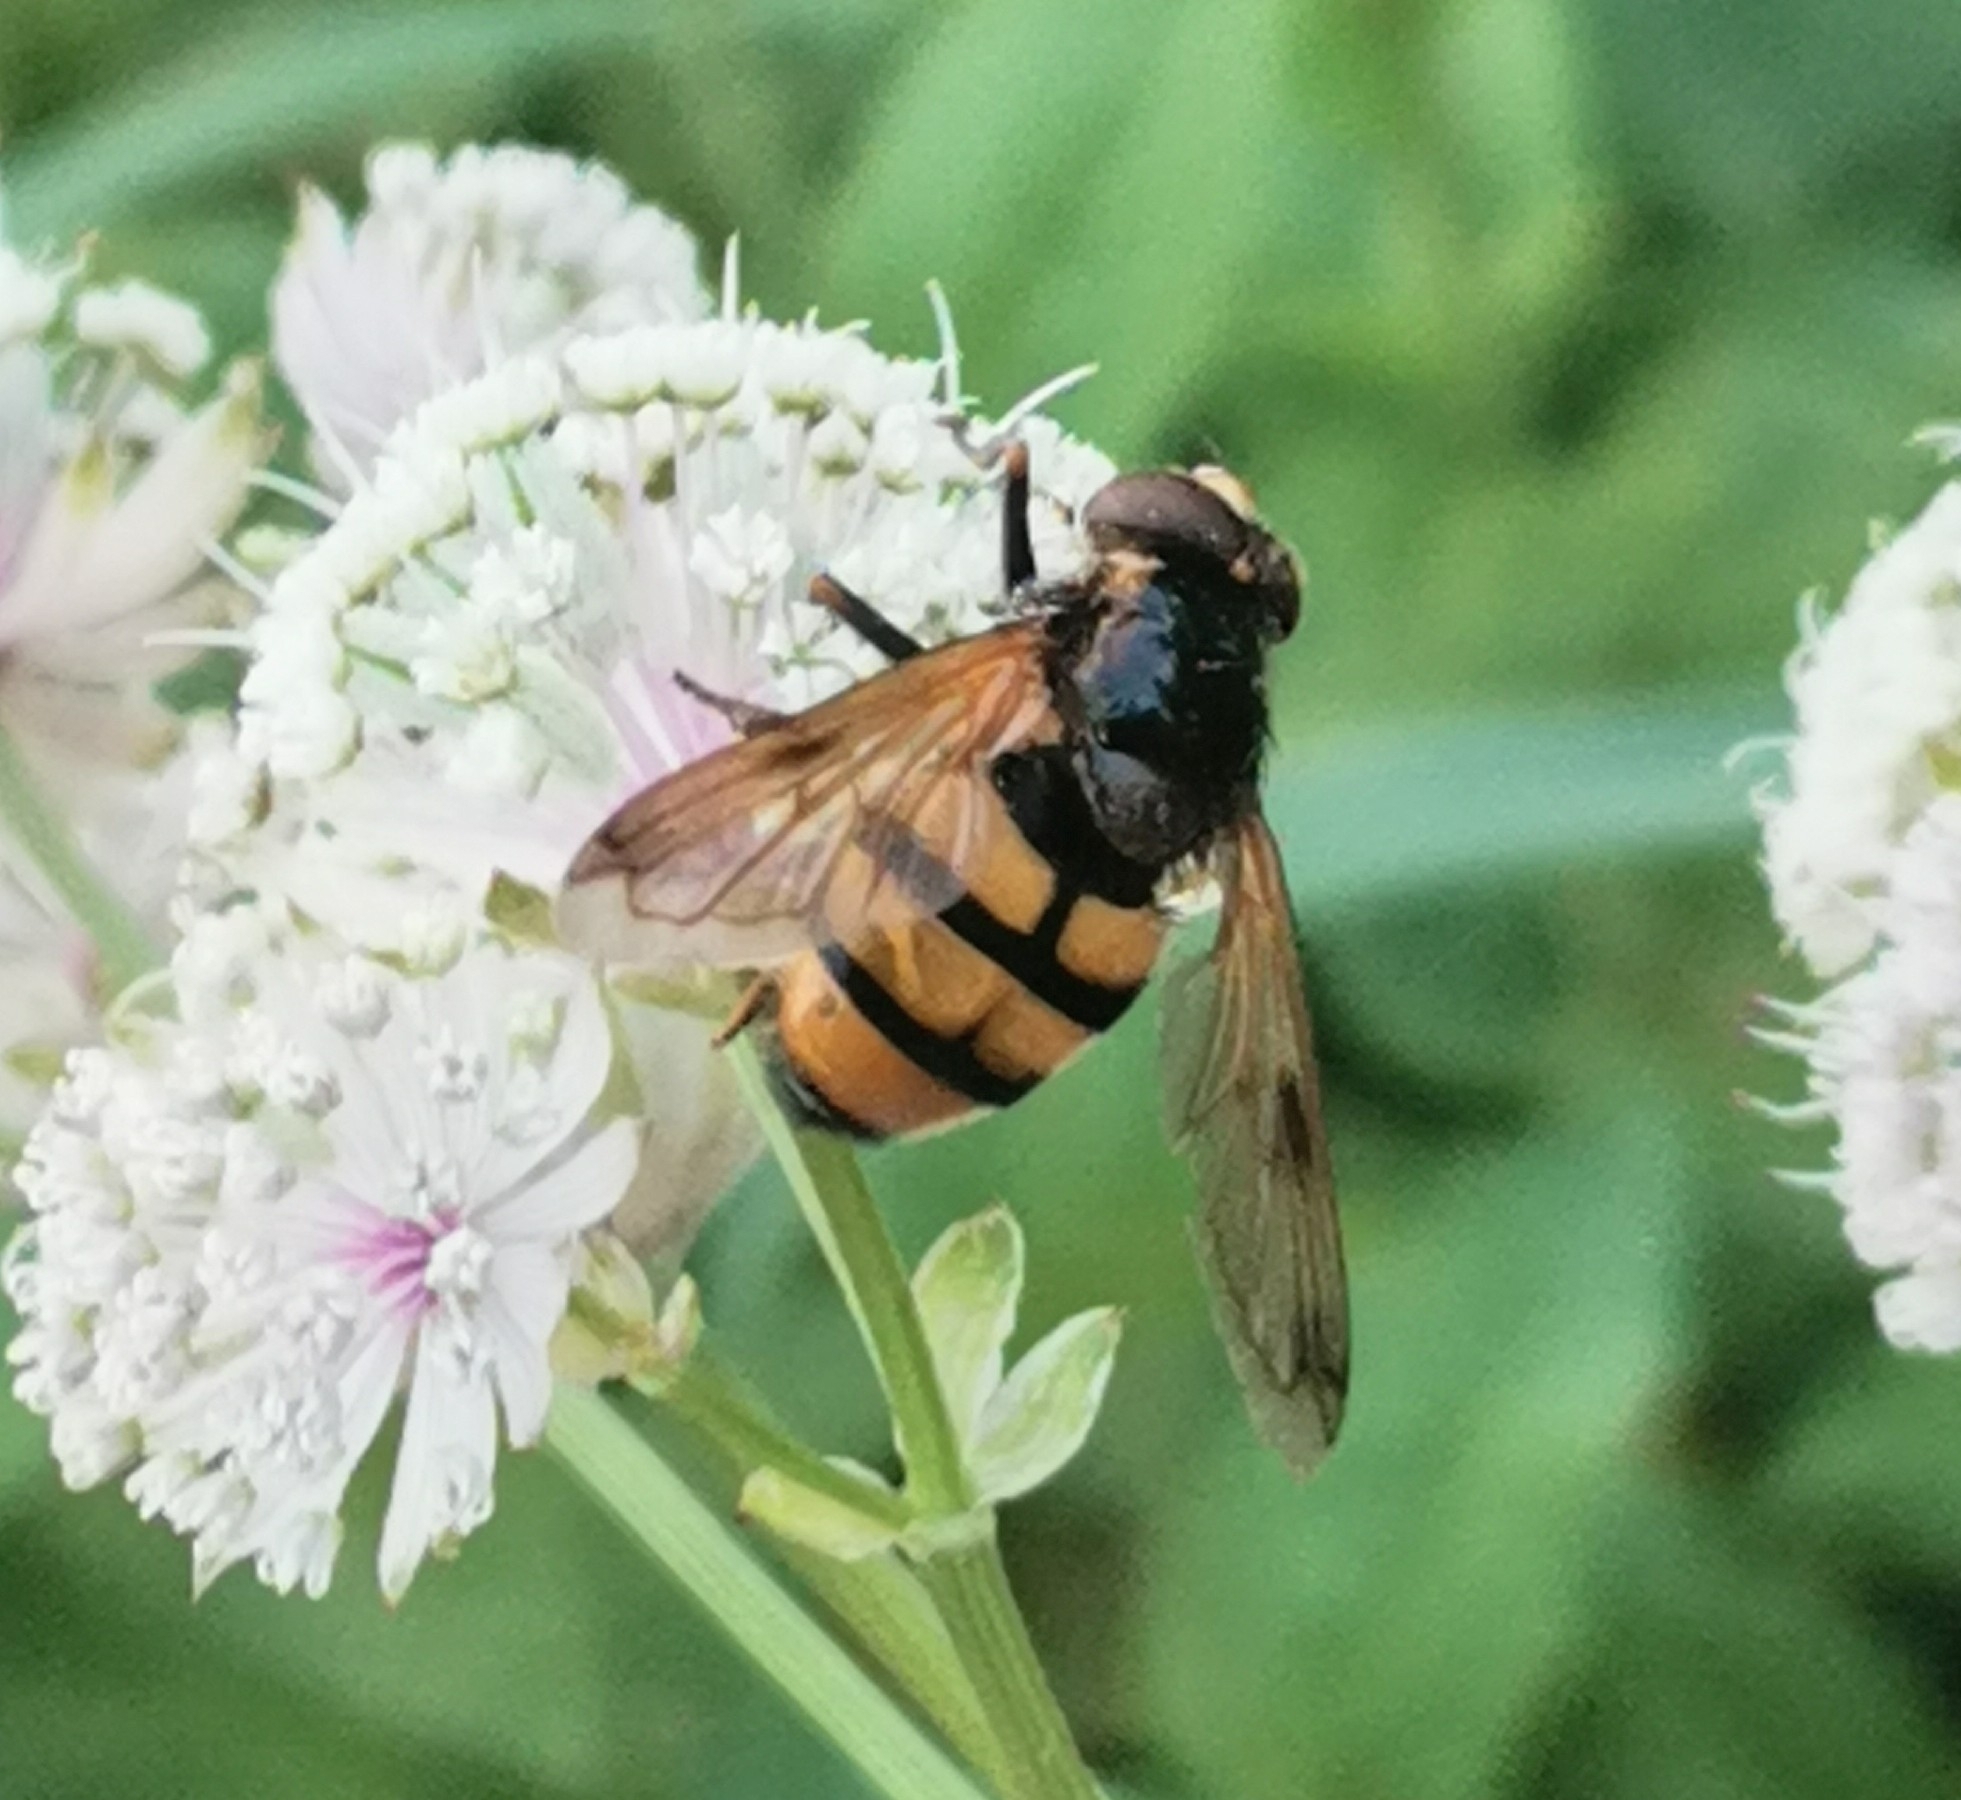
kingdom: Animalia
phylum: Arthropoda
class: Insecta
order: Diptera
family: Syrphidae
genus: Volucella
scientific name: Volucella inanis
